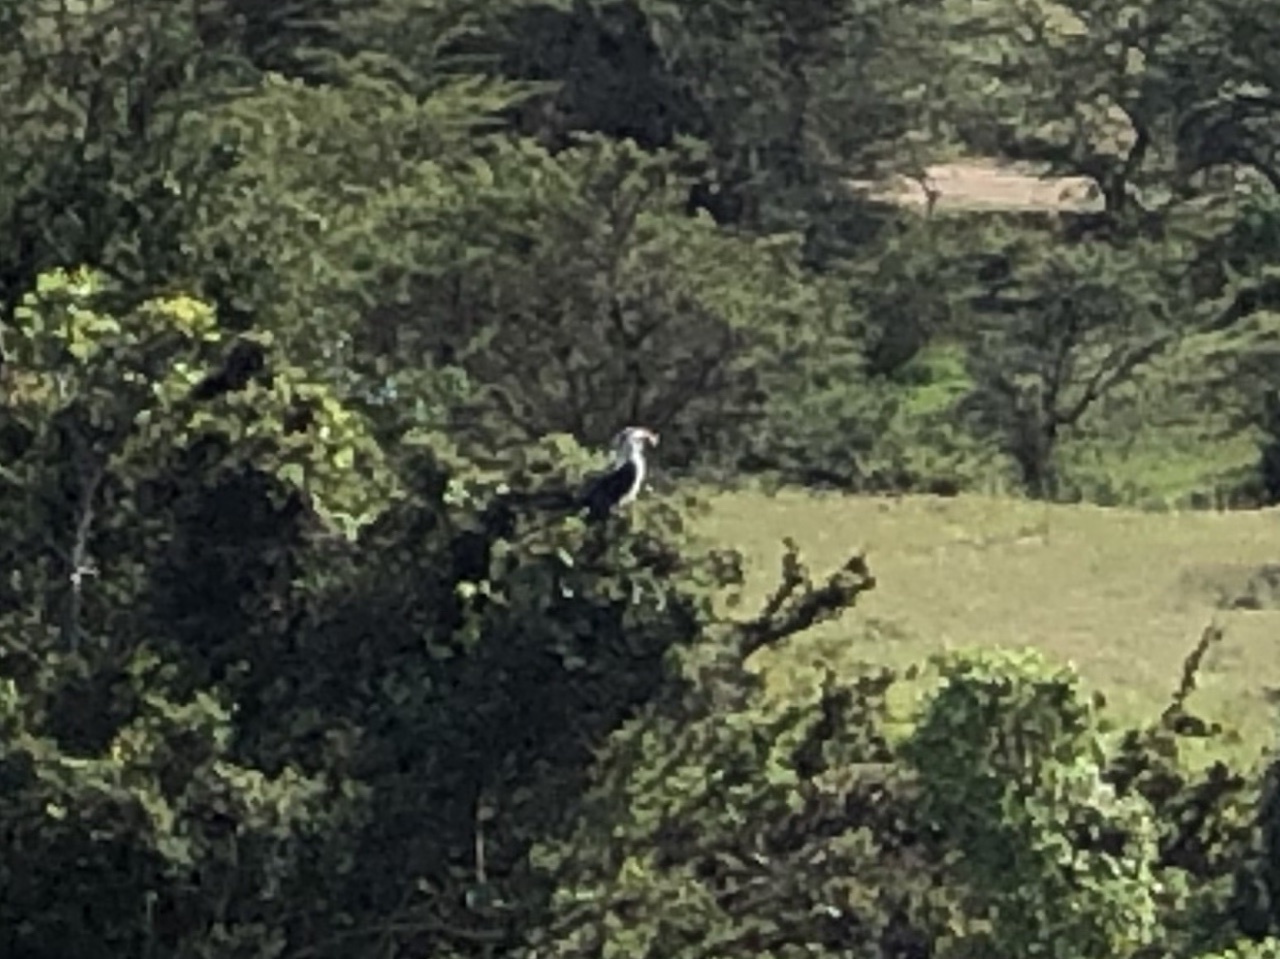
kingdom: Animalia
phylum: Chordata
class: Aves
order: Bucerotiformes
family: Bucerotidae
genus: Tockus
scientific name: Tockus deckeni
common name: Von der decken's hornbill
